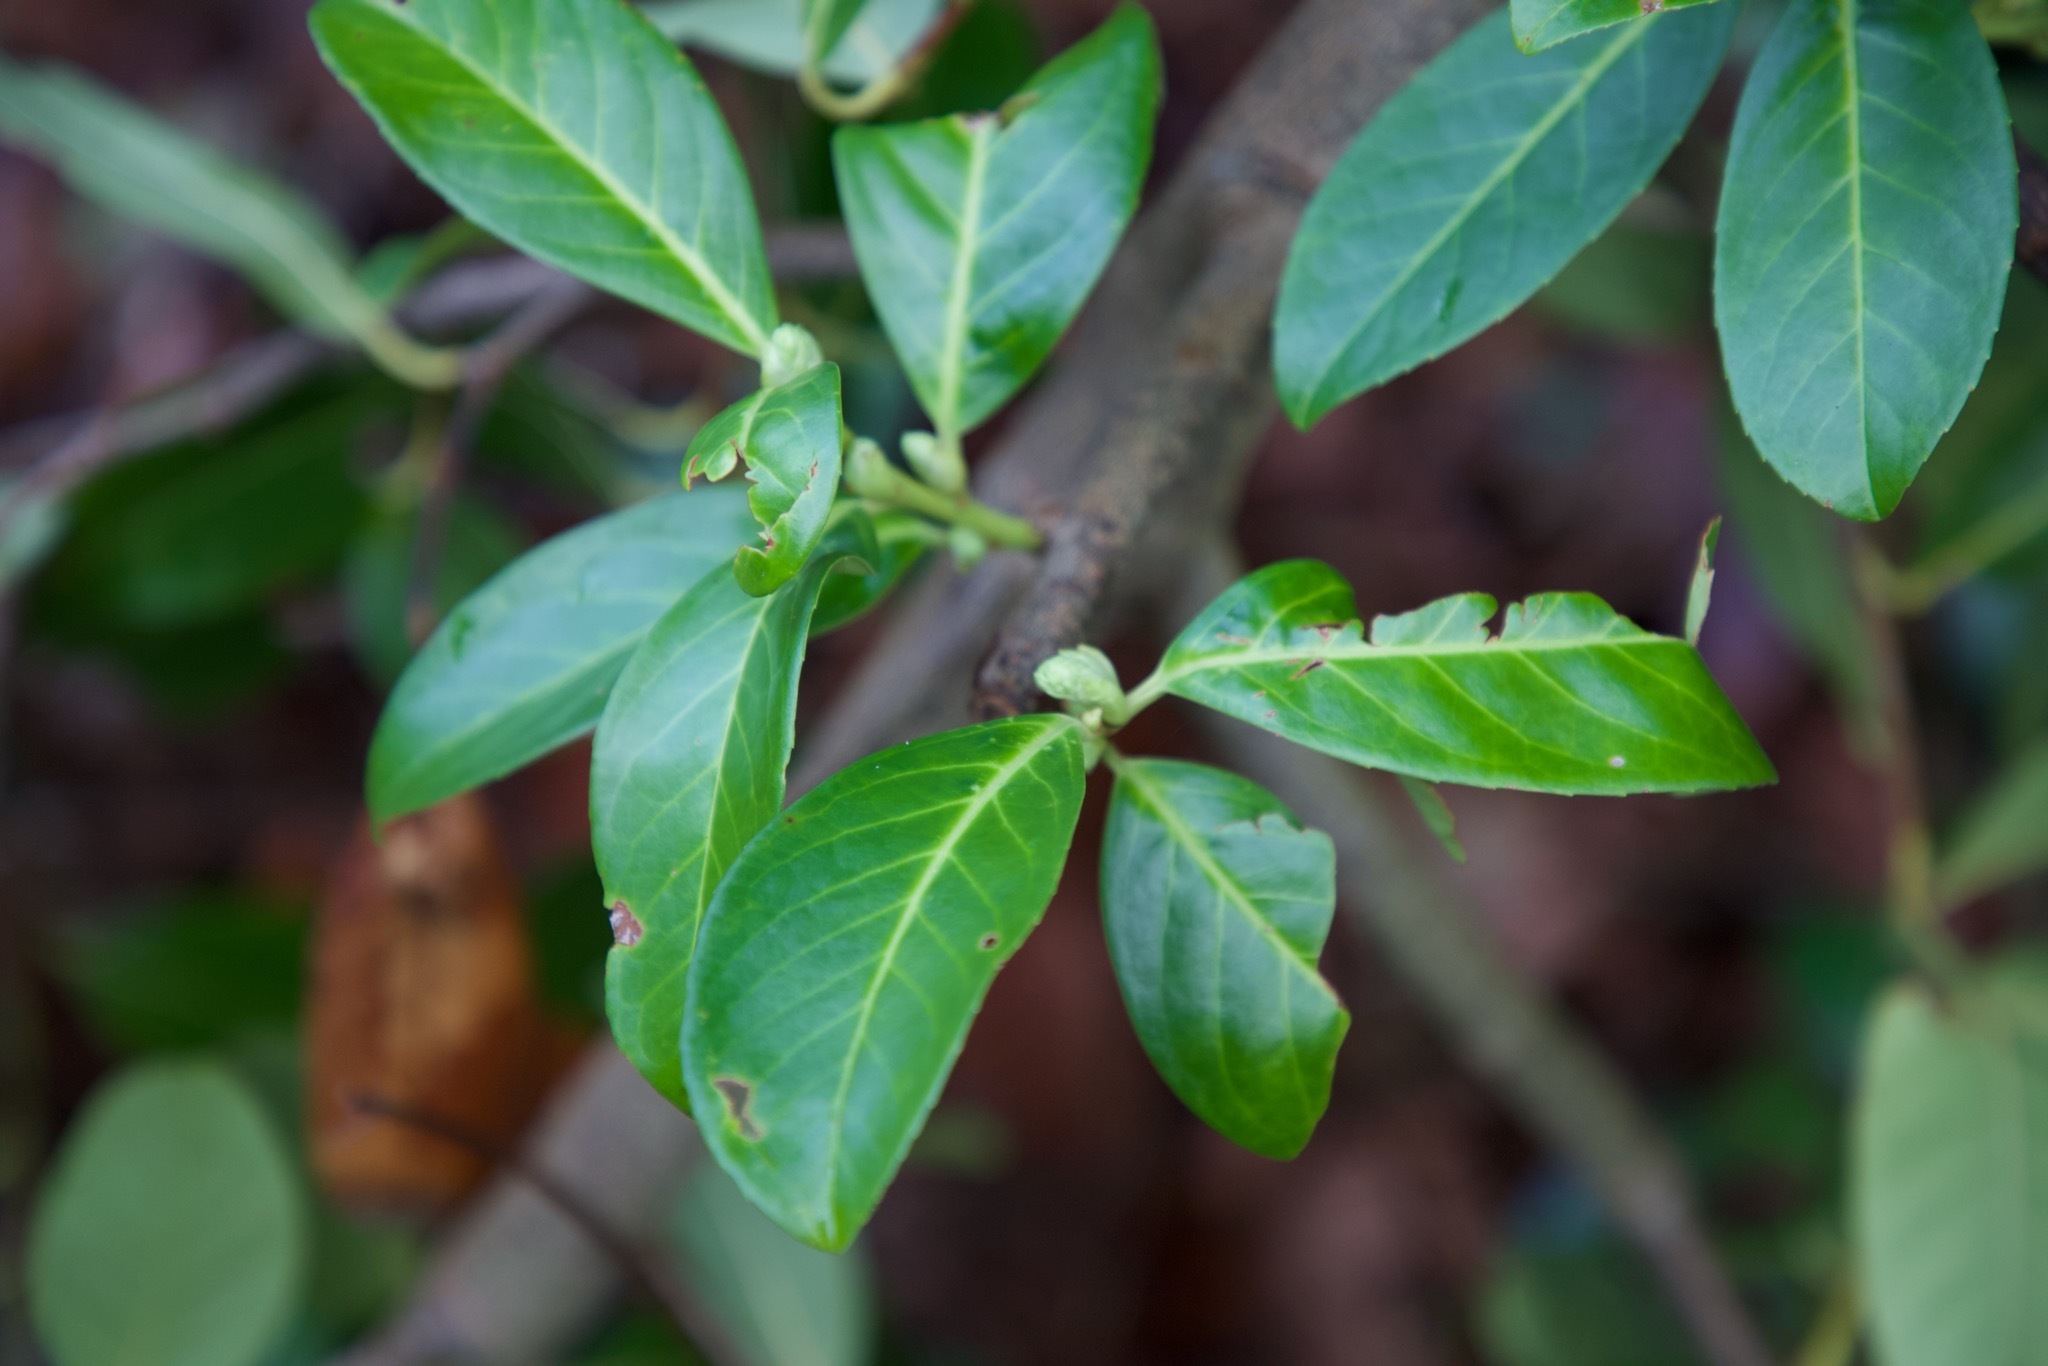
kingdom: Plantae
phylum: Tracheophyta
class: Magnoliopsida
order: Rosales
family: Rosaceae
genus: Prunus
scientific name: Prunus laurocerasus
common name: Cherry laurel
